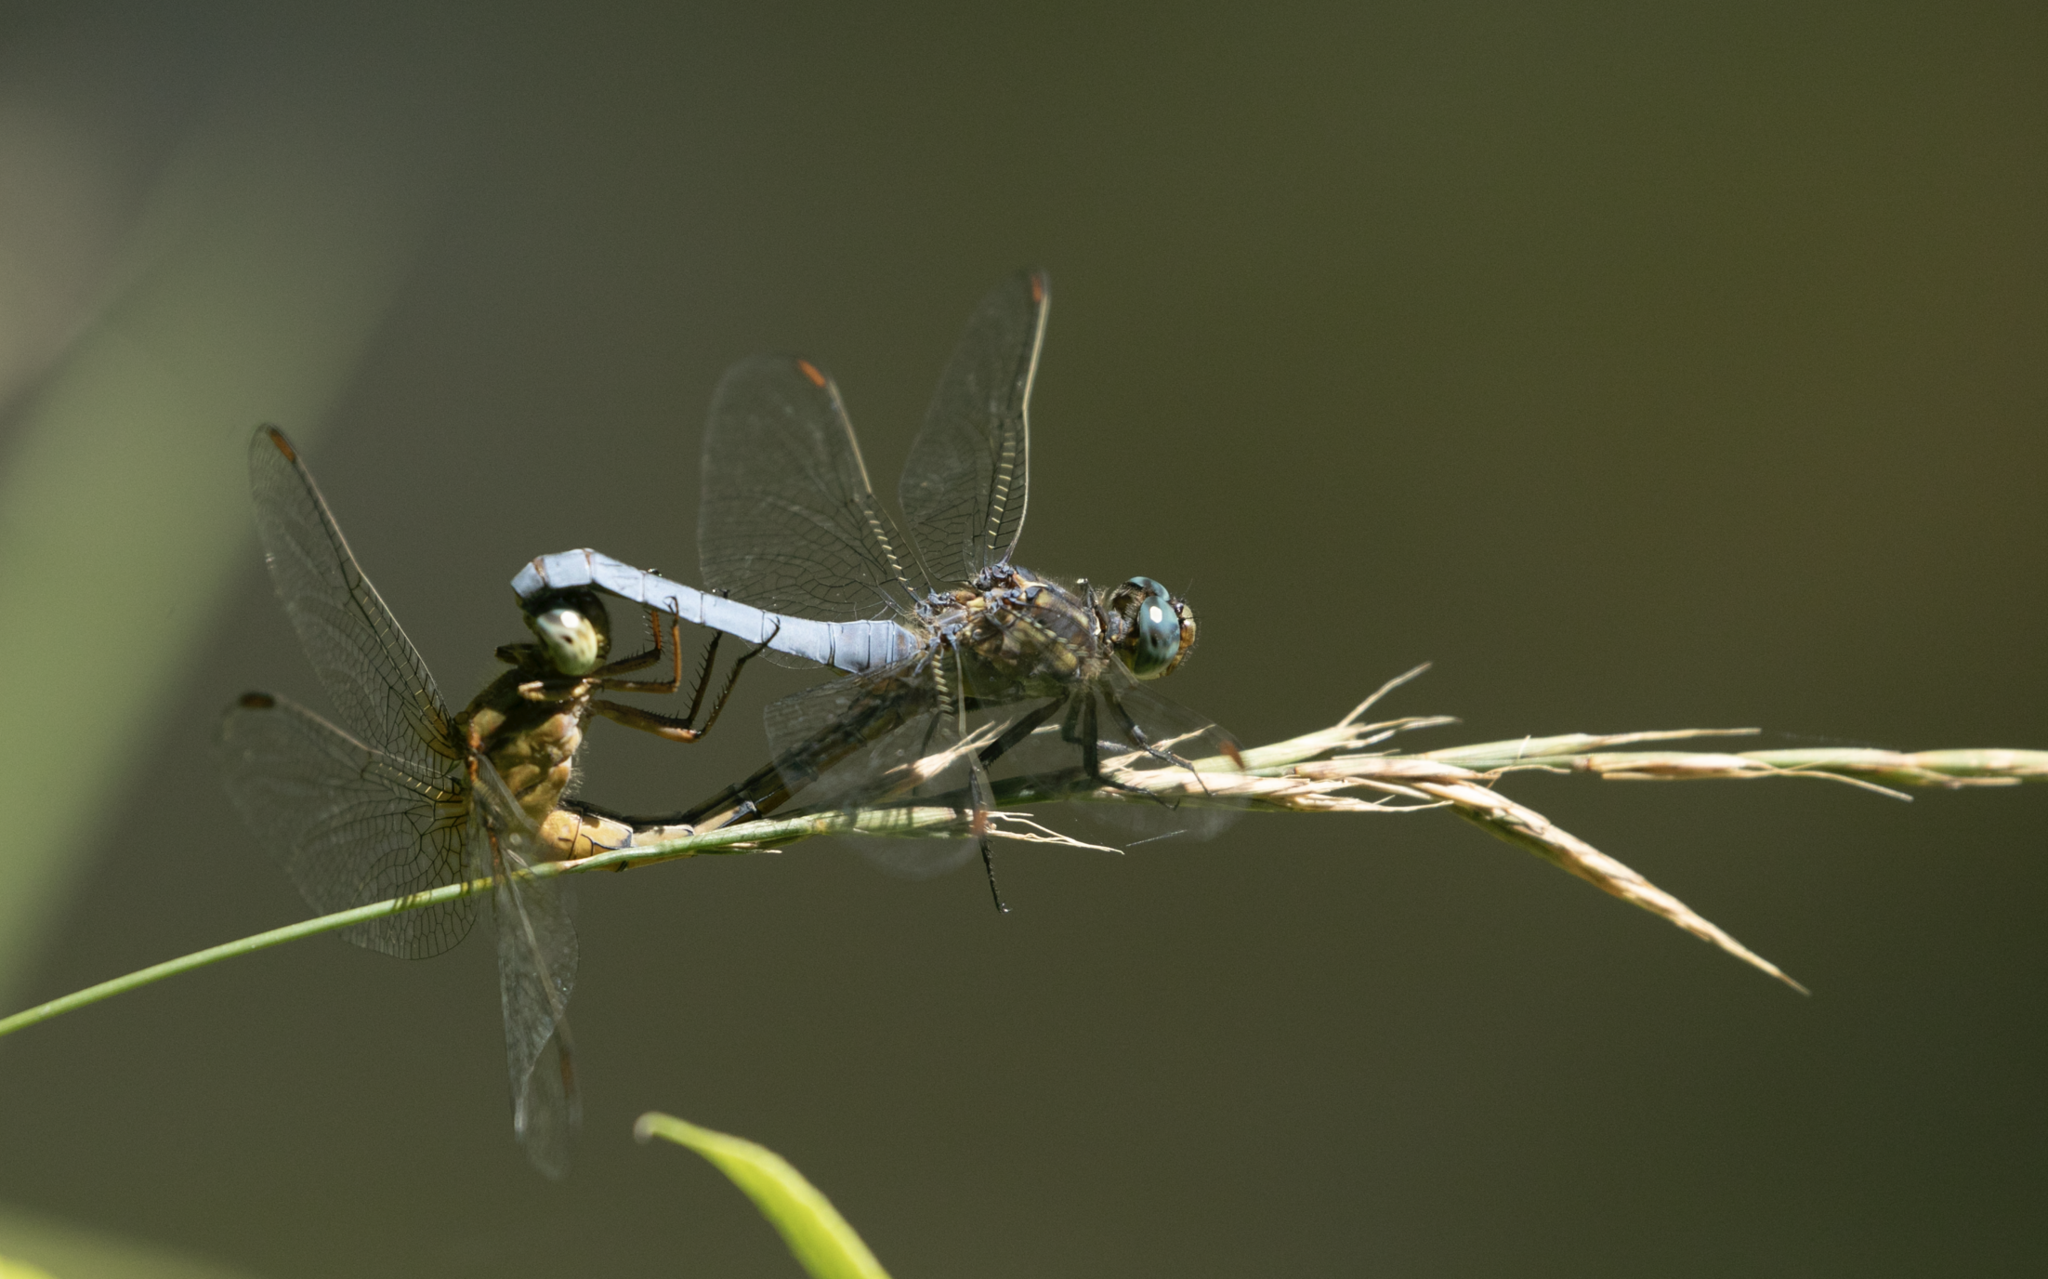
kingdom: Animalia
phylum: Arthropoda
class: Insecta
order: Odonata
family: Libellulidae
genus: Orthetrum
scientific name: Orthetrum coerulescens
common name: Keeled skimmer
